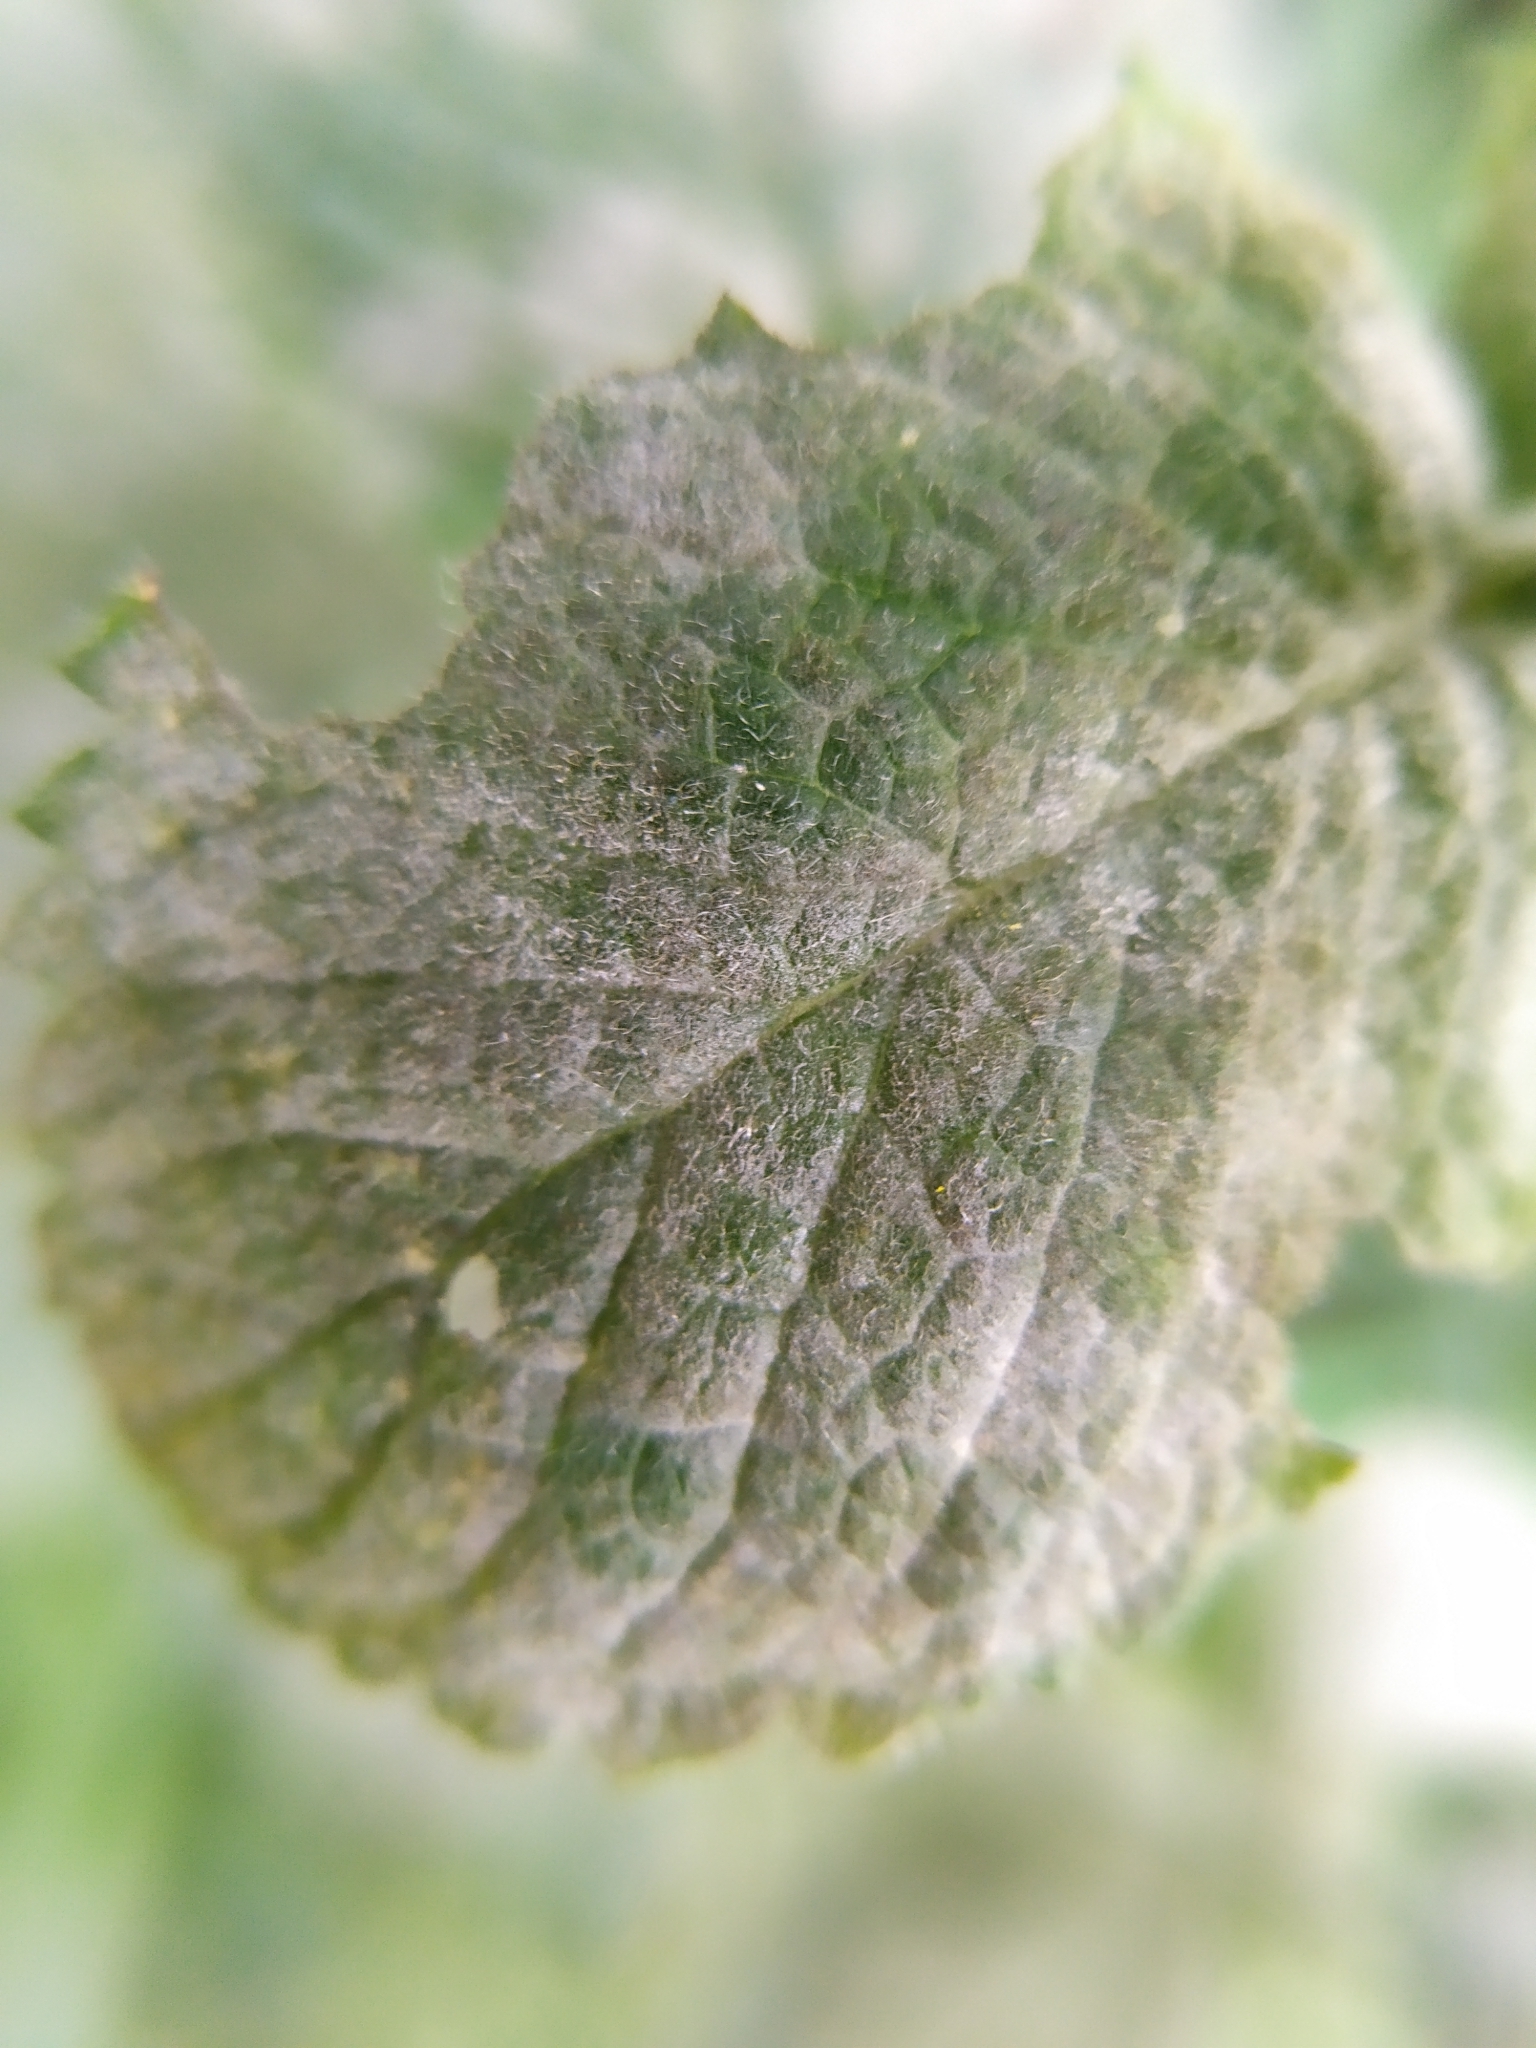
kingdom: Fungi
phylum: Ascomycota
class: Leotiomycetes
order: Helotiales
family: Erysiphaceae
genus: Golovinomyces
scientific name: Golovinomyces monardae
